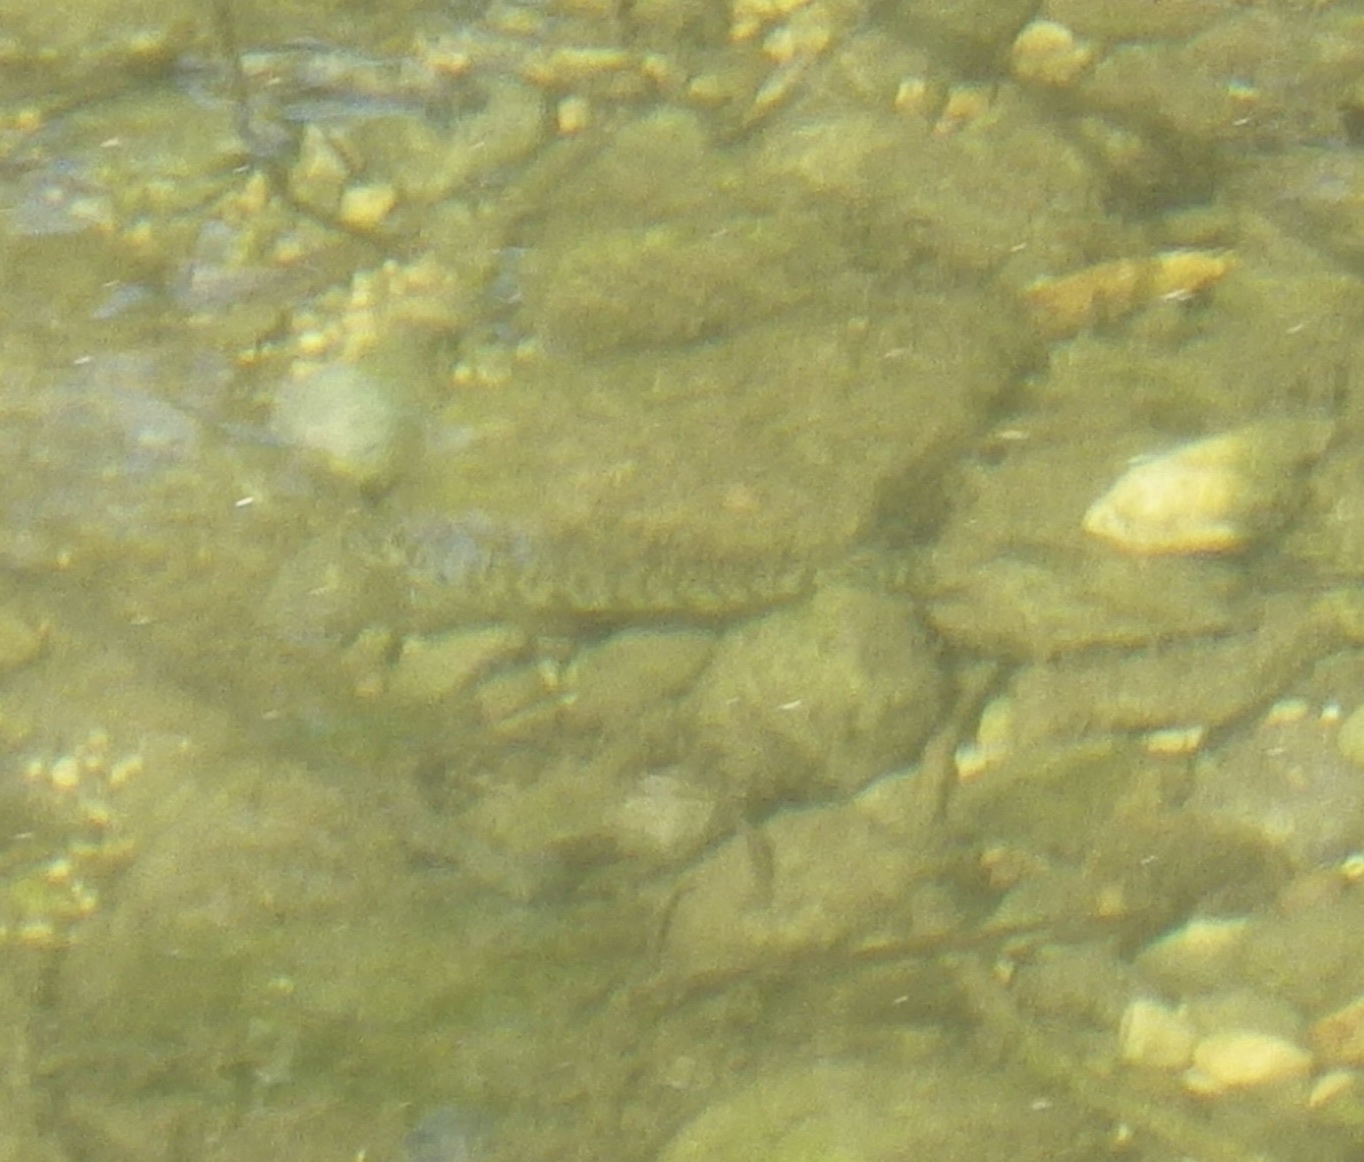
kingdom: Animalia
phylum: Chordata
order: Perciformes
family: Percidae
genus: Percina
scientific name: Percina carbonaria
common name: Texas logperch
